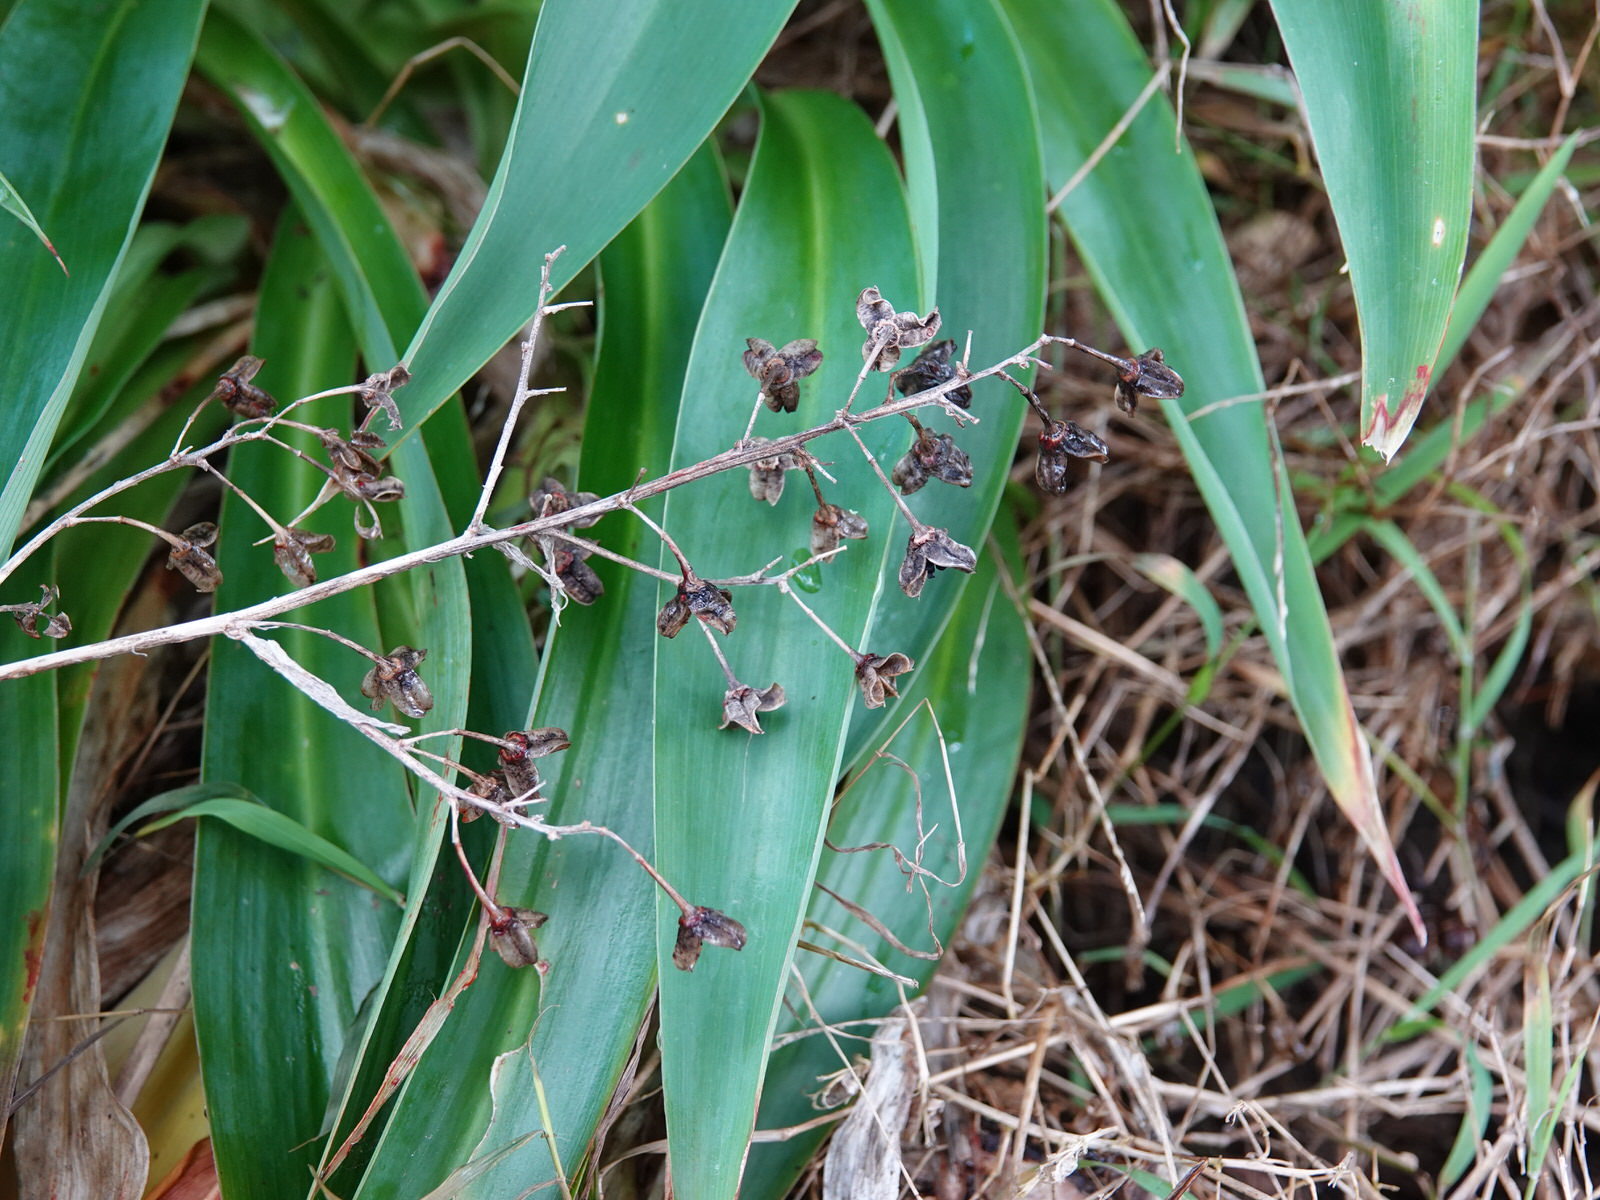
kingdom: Plantae
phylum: Tracheophyta
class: Liliopsida
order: Asparagales
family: Asparagaceae
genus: Arthropodium
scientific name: Arthropodium cirratum
